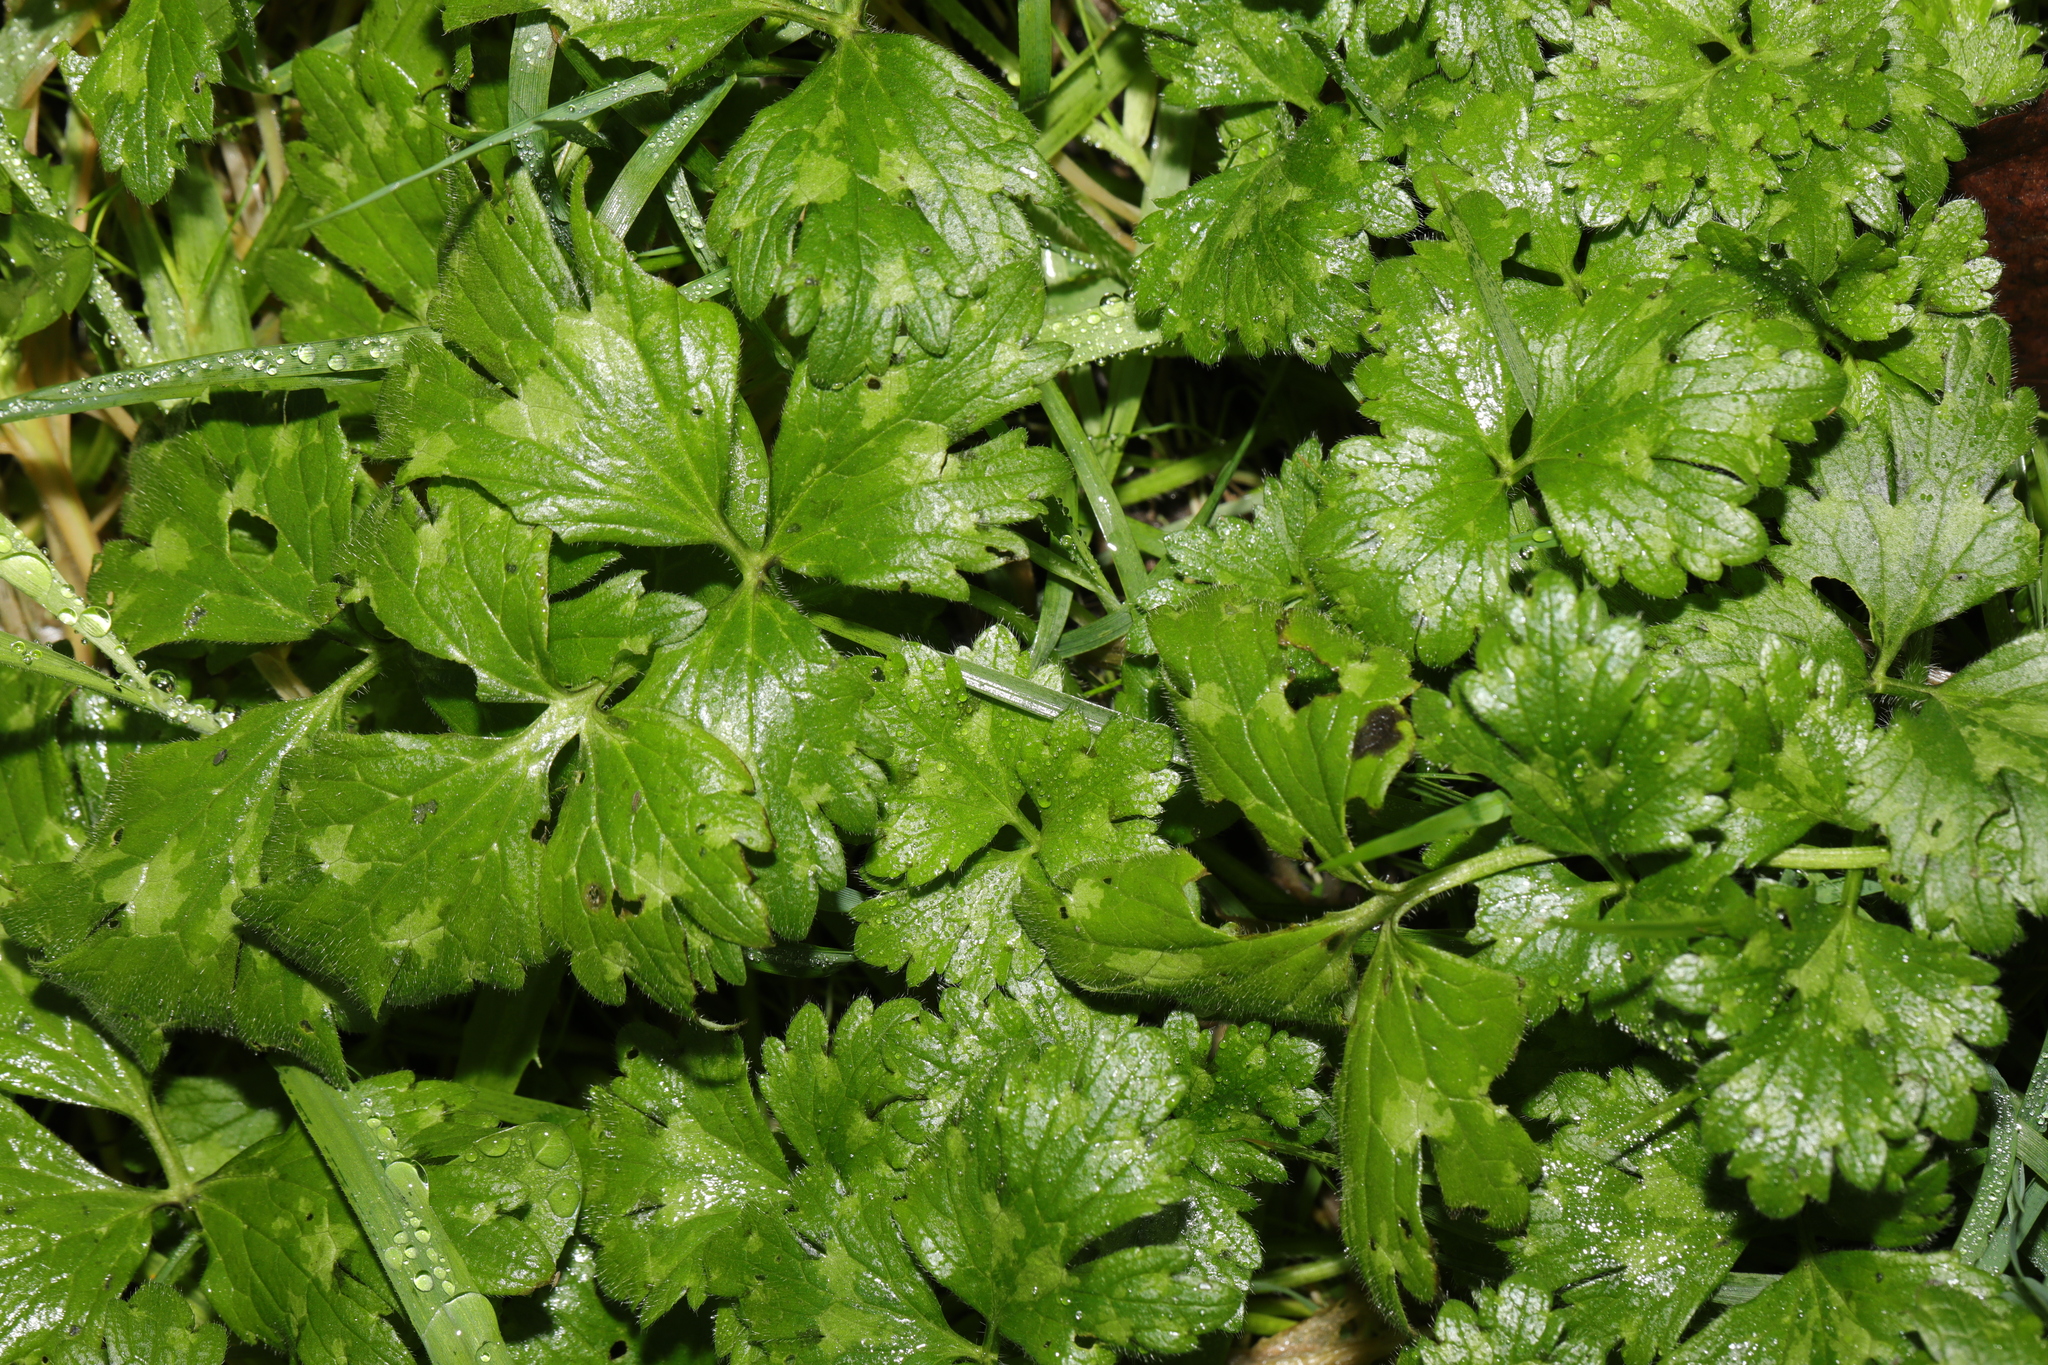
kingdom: Plantae
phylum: Tracheophyta
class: Magnoliopsida
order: Ranunculales
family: Ranunculaceae
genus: Ranunculus
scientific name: Ranunculus repens
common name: Creeping buttercup
